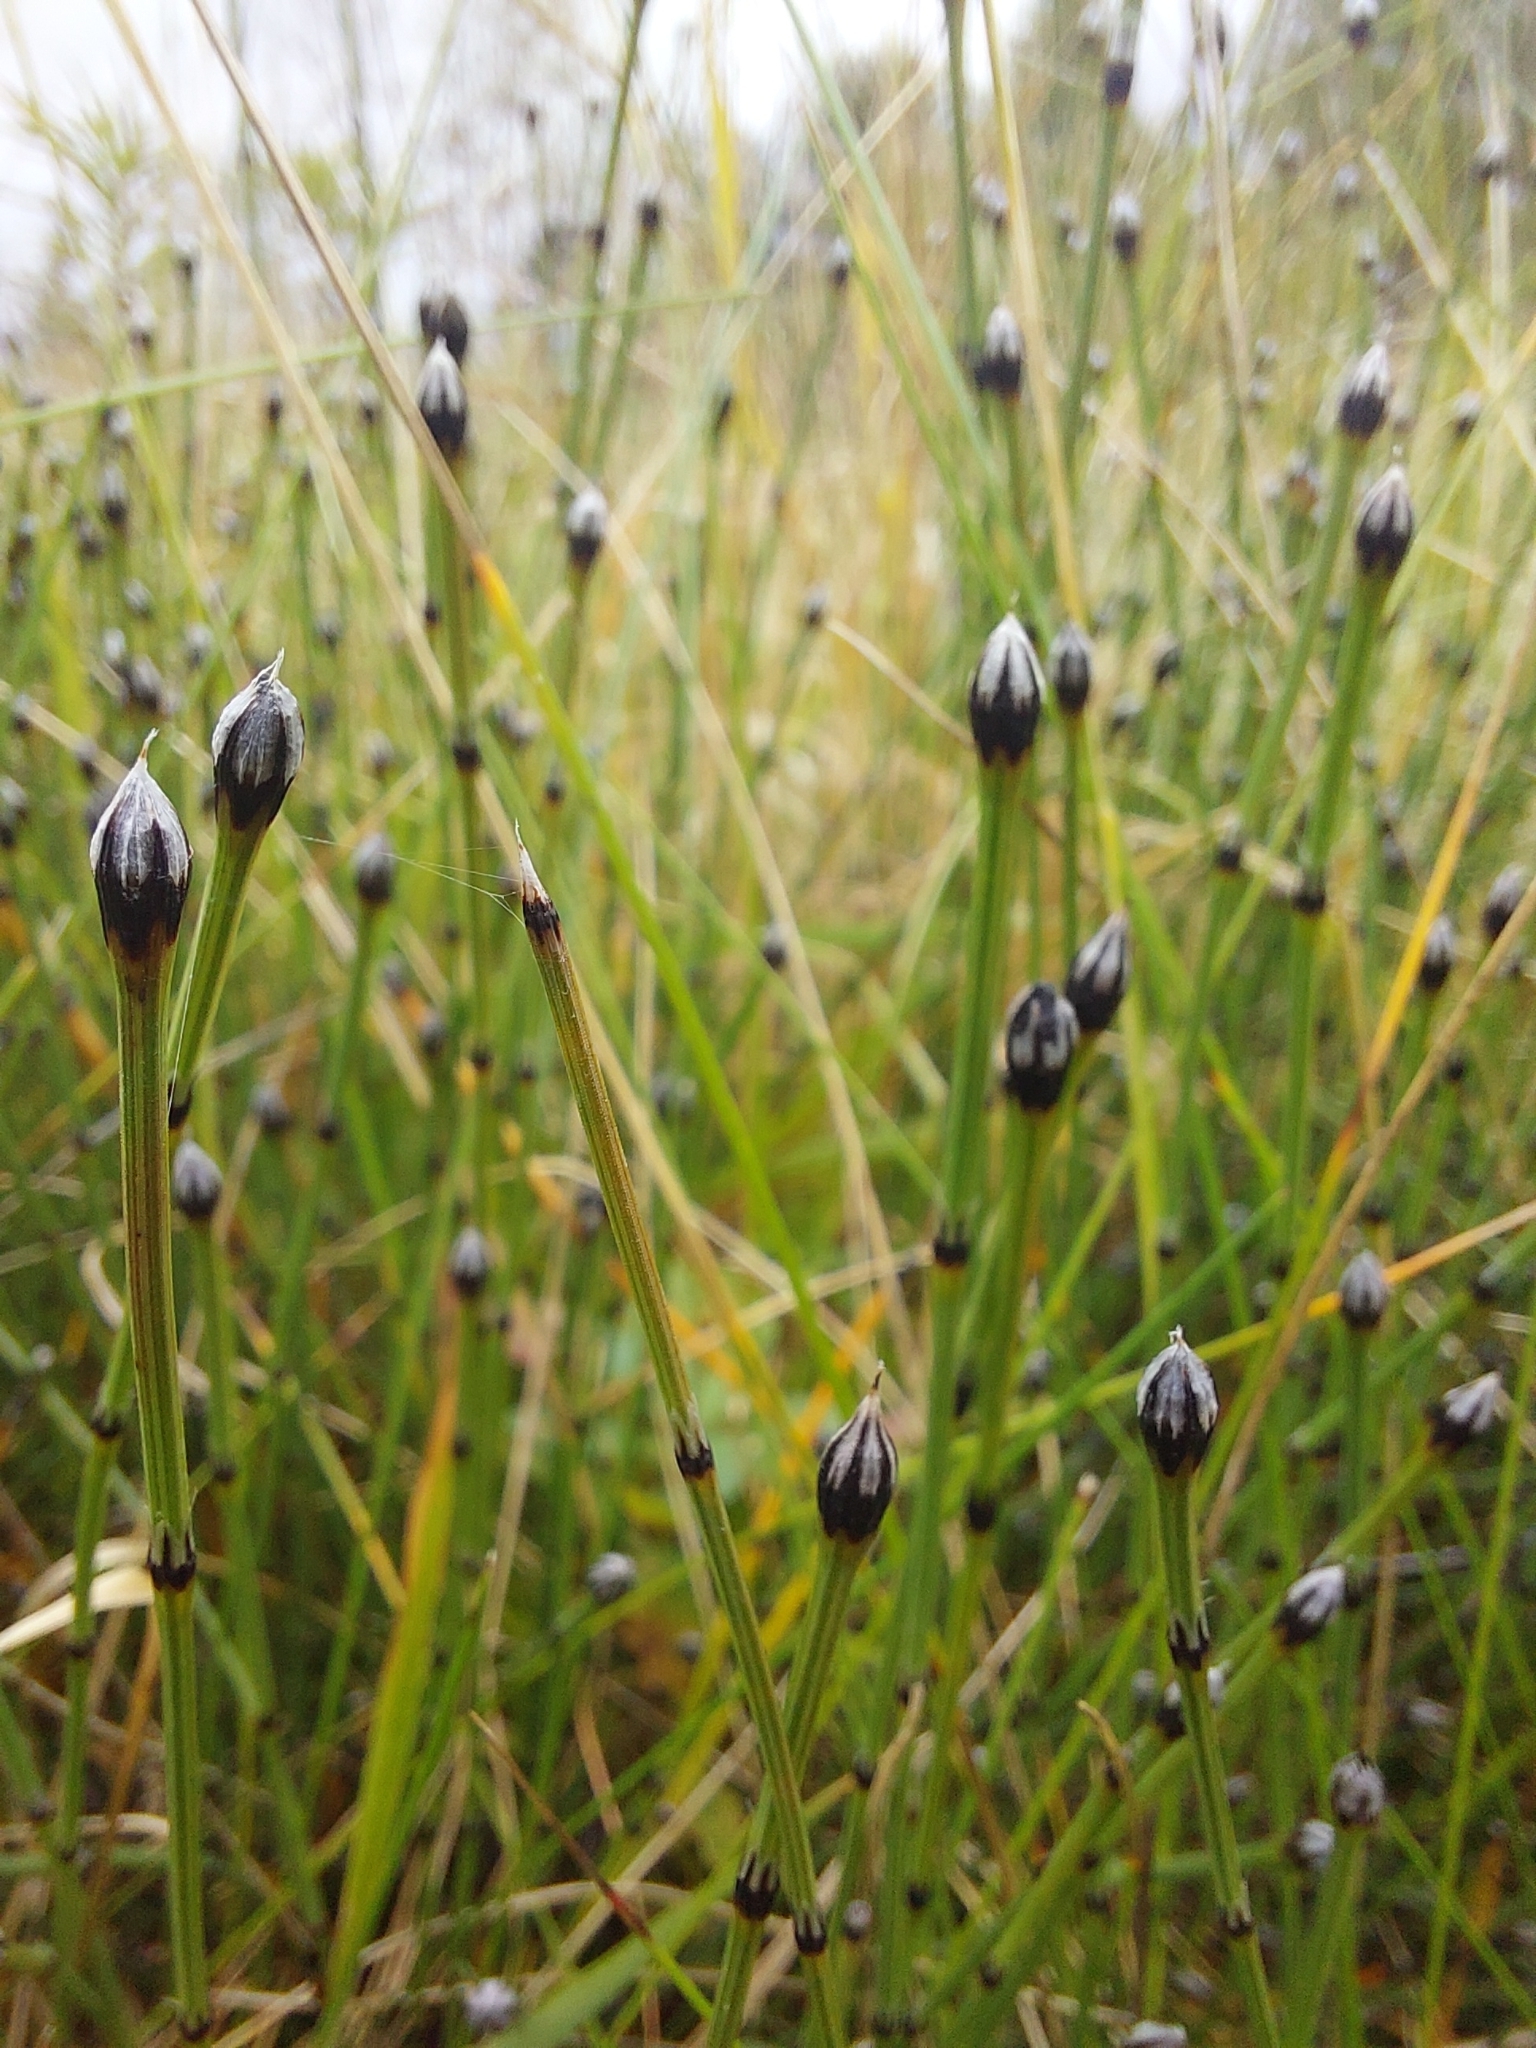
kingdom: Plantae
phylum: Tracheophyta
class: Polypodiopsida
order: Equisetales
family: Equisetaceae
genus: Equisetum
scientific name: Equisetum variegatum
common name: Variegated horsetail
